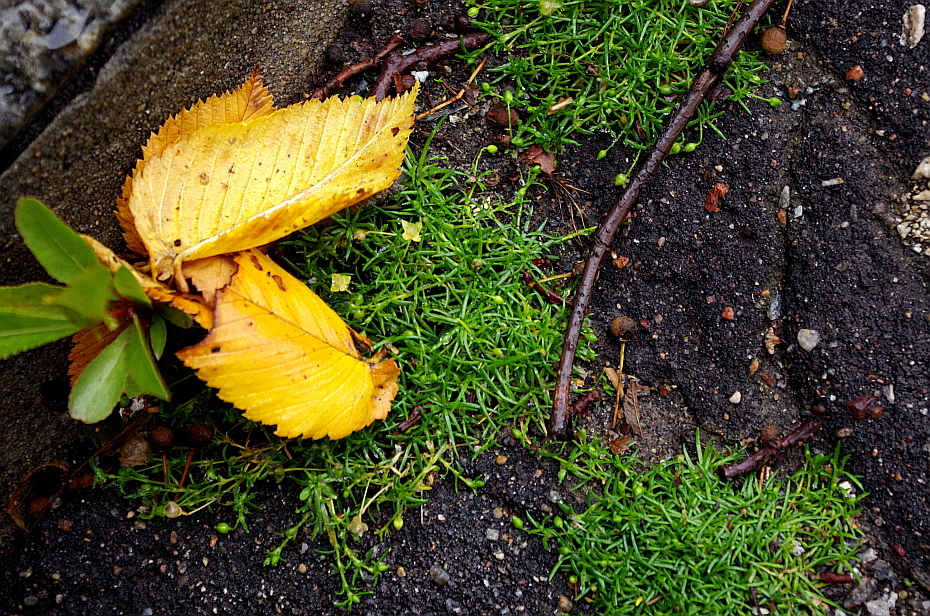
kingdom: Plantae
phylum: Tracheophyta
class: Magnoliopsida
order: Caryophyllales
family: Caryophyllaceae
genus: Sagina
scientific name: Sagina procumbens
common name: Procumbent pearlwort
